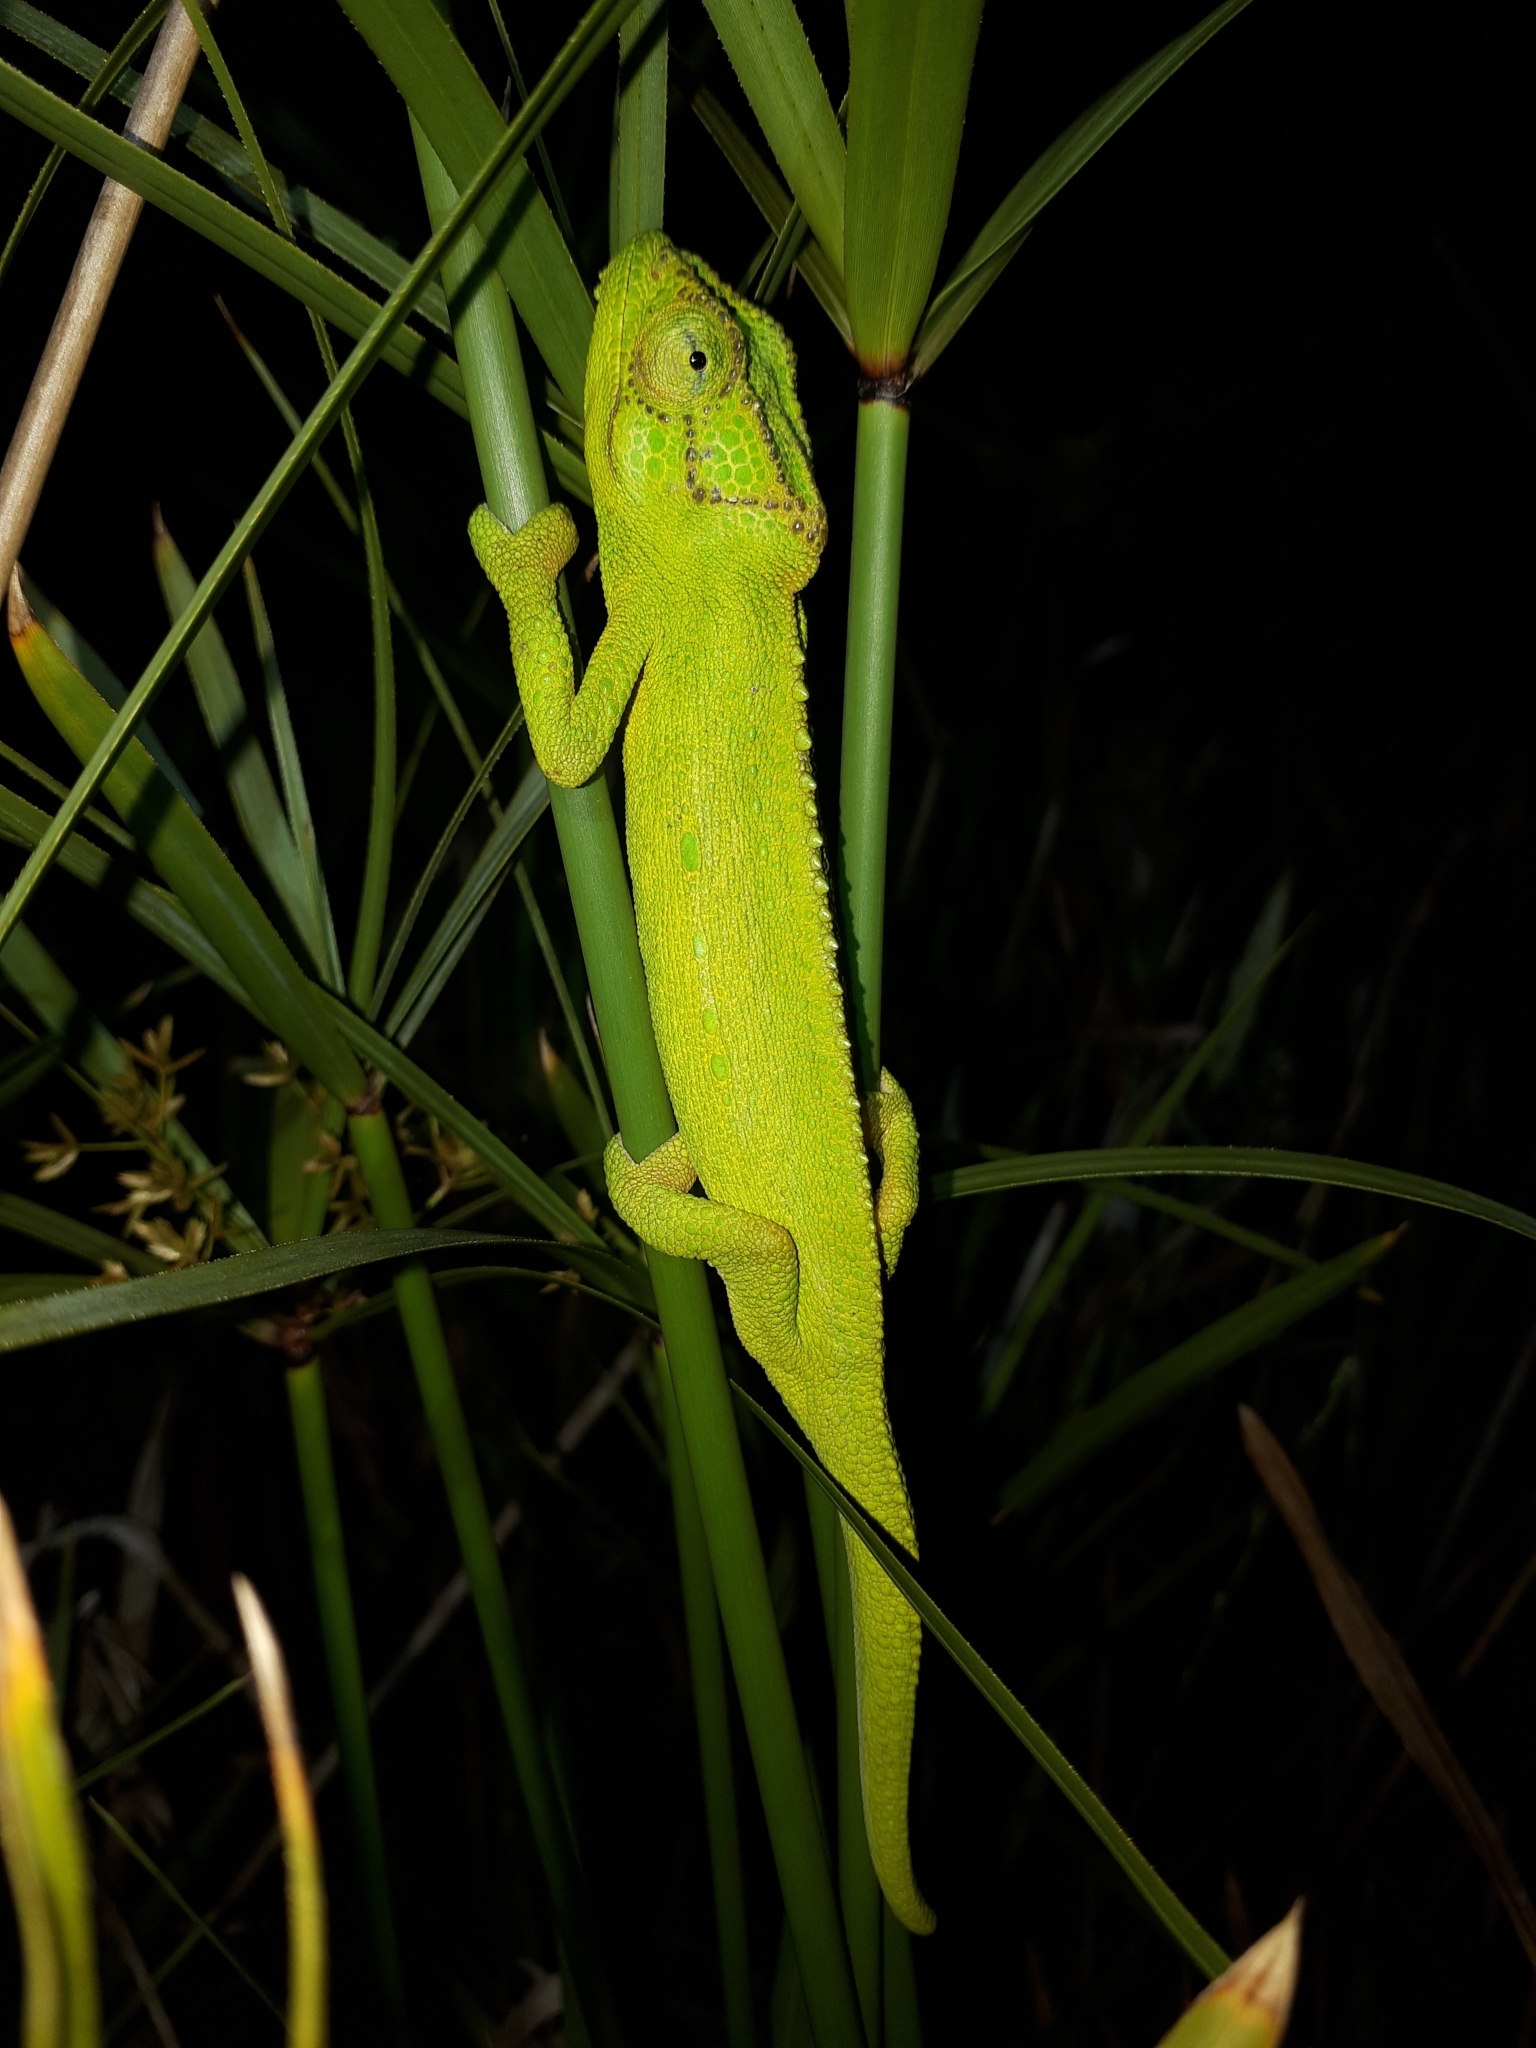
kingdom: Animalia
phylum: Chordata
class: Squamata
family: Chamaeleonidae
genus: Bradypodion
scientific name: Bradypodion pumilum
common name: Cape dwarf chameleon
